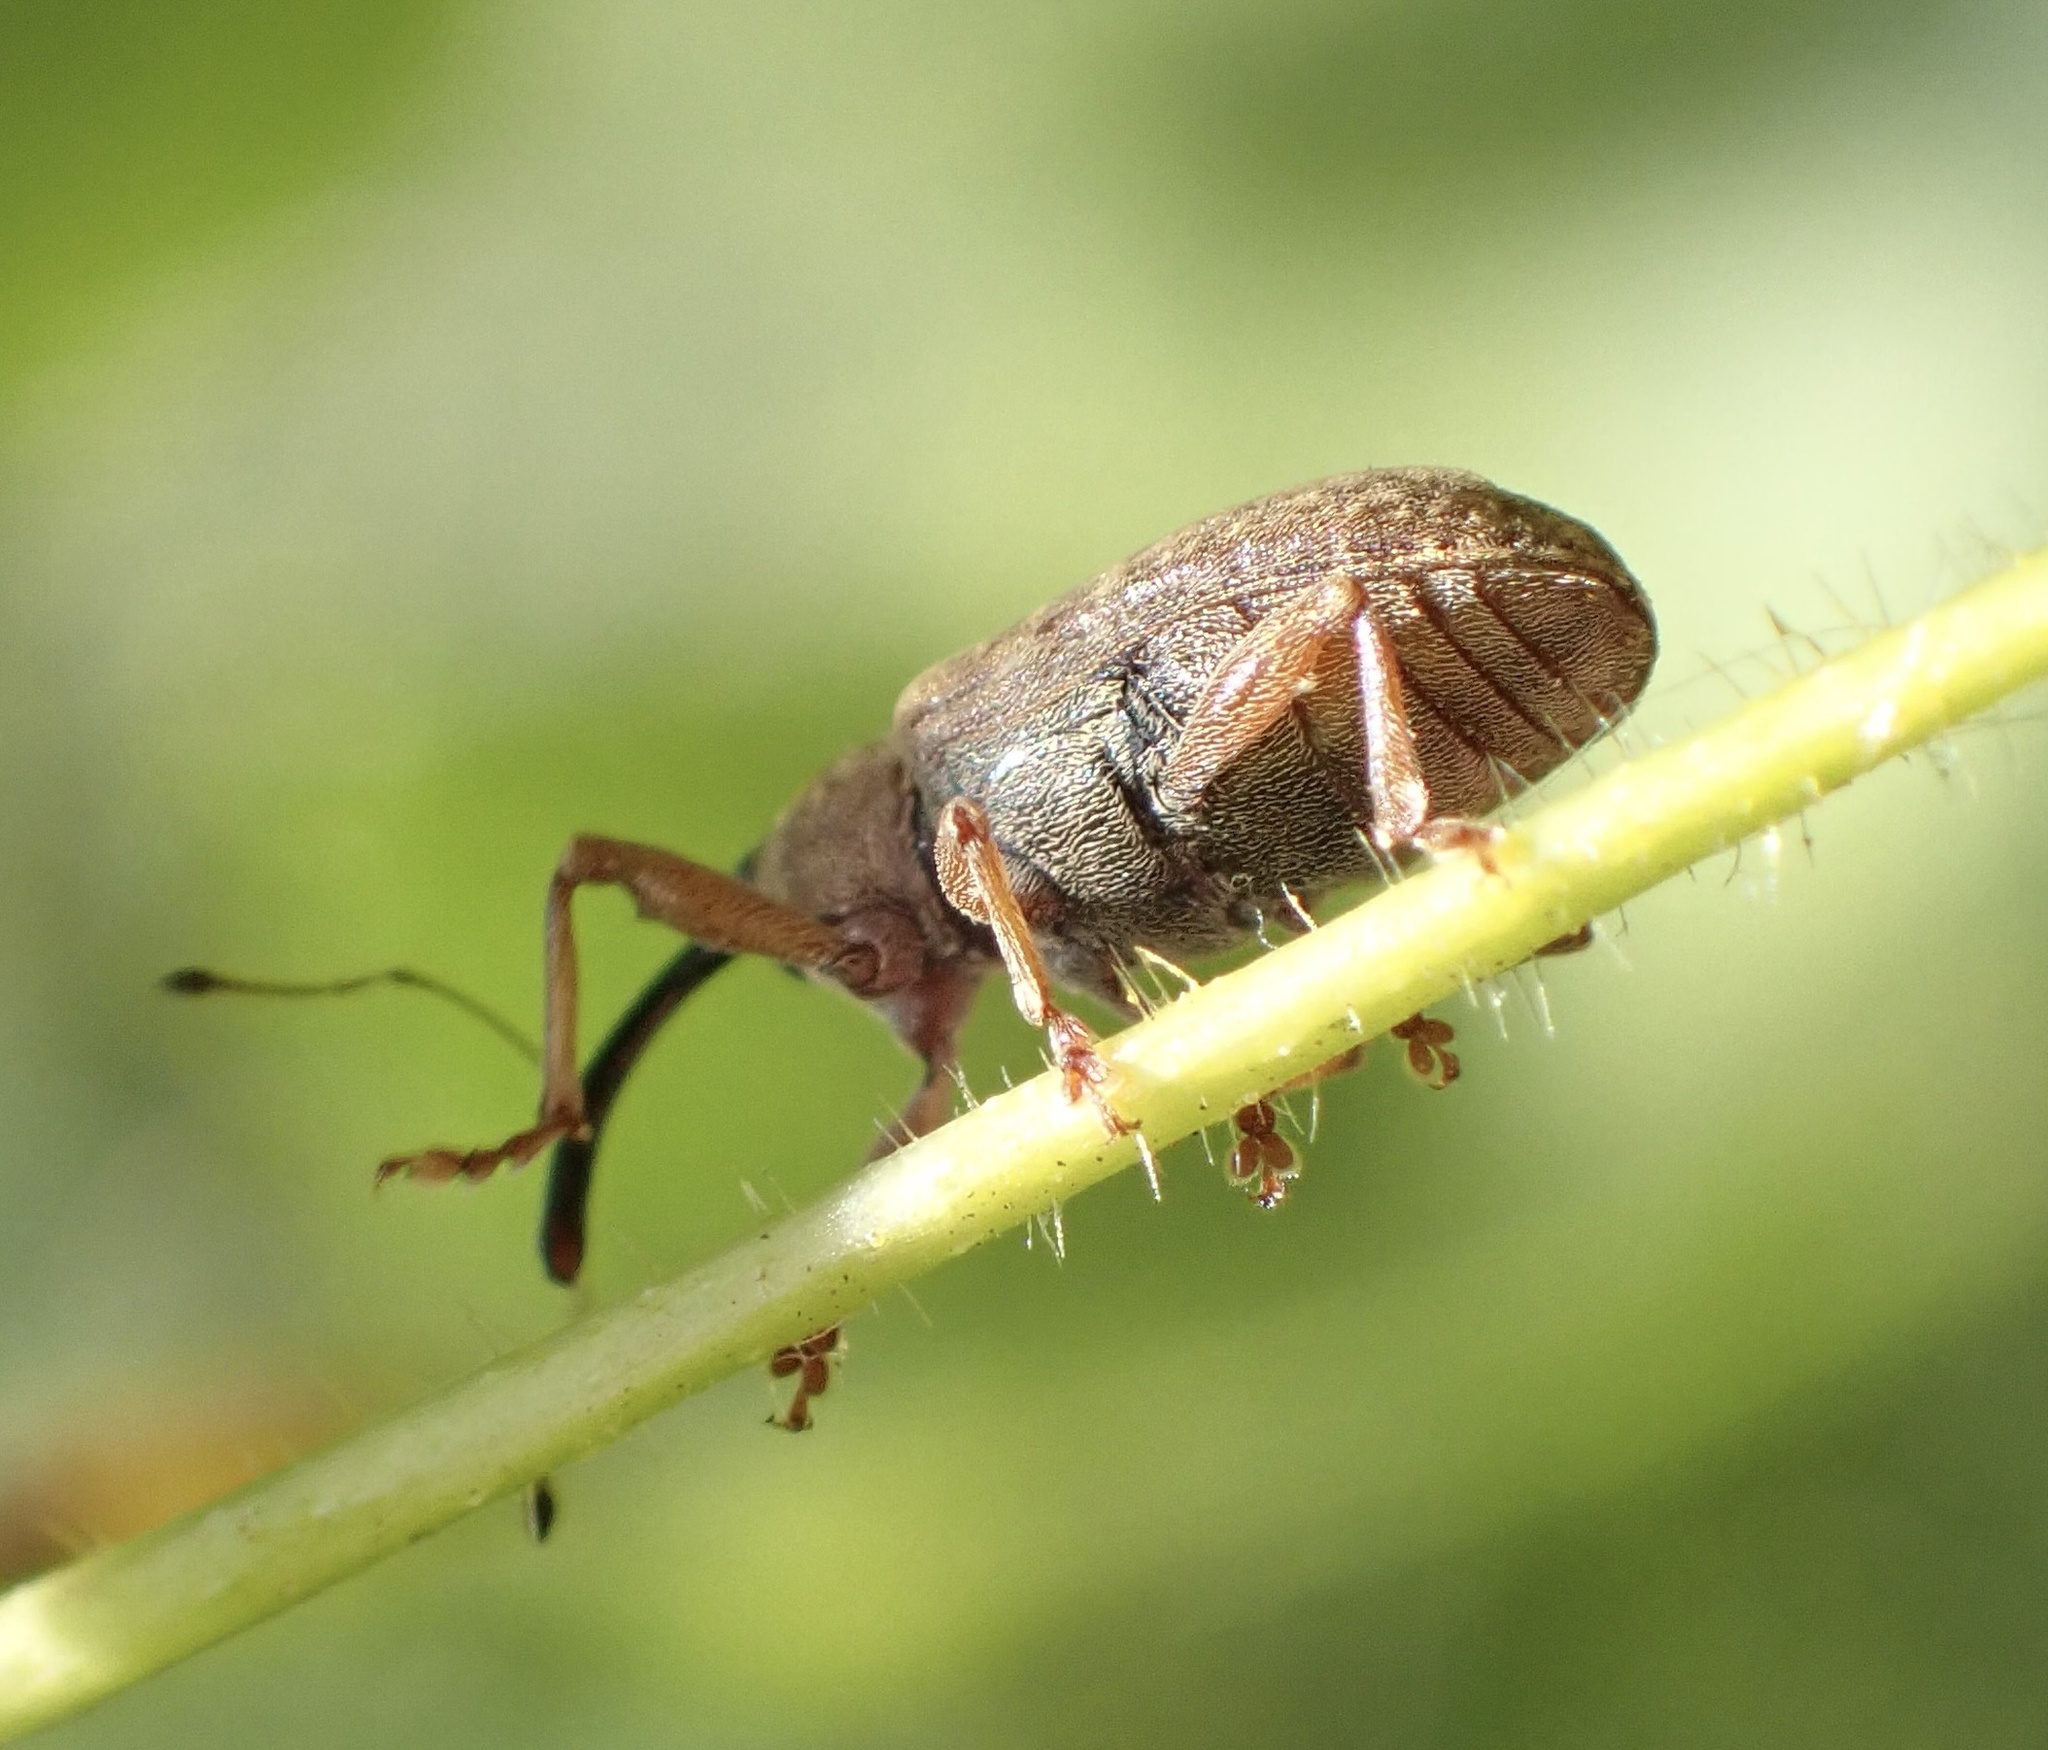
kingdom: Animalia
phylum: Arthropoda
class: Insecta
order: Coleoptera
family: Curculionidae
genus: Dorytomus
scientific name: Dorytomus longimanus
